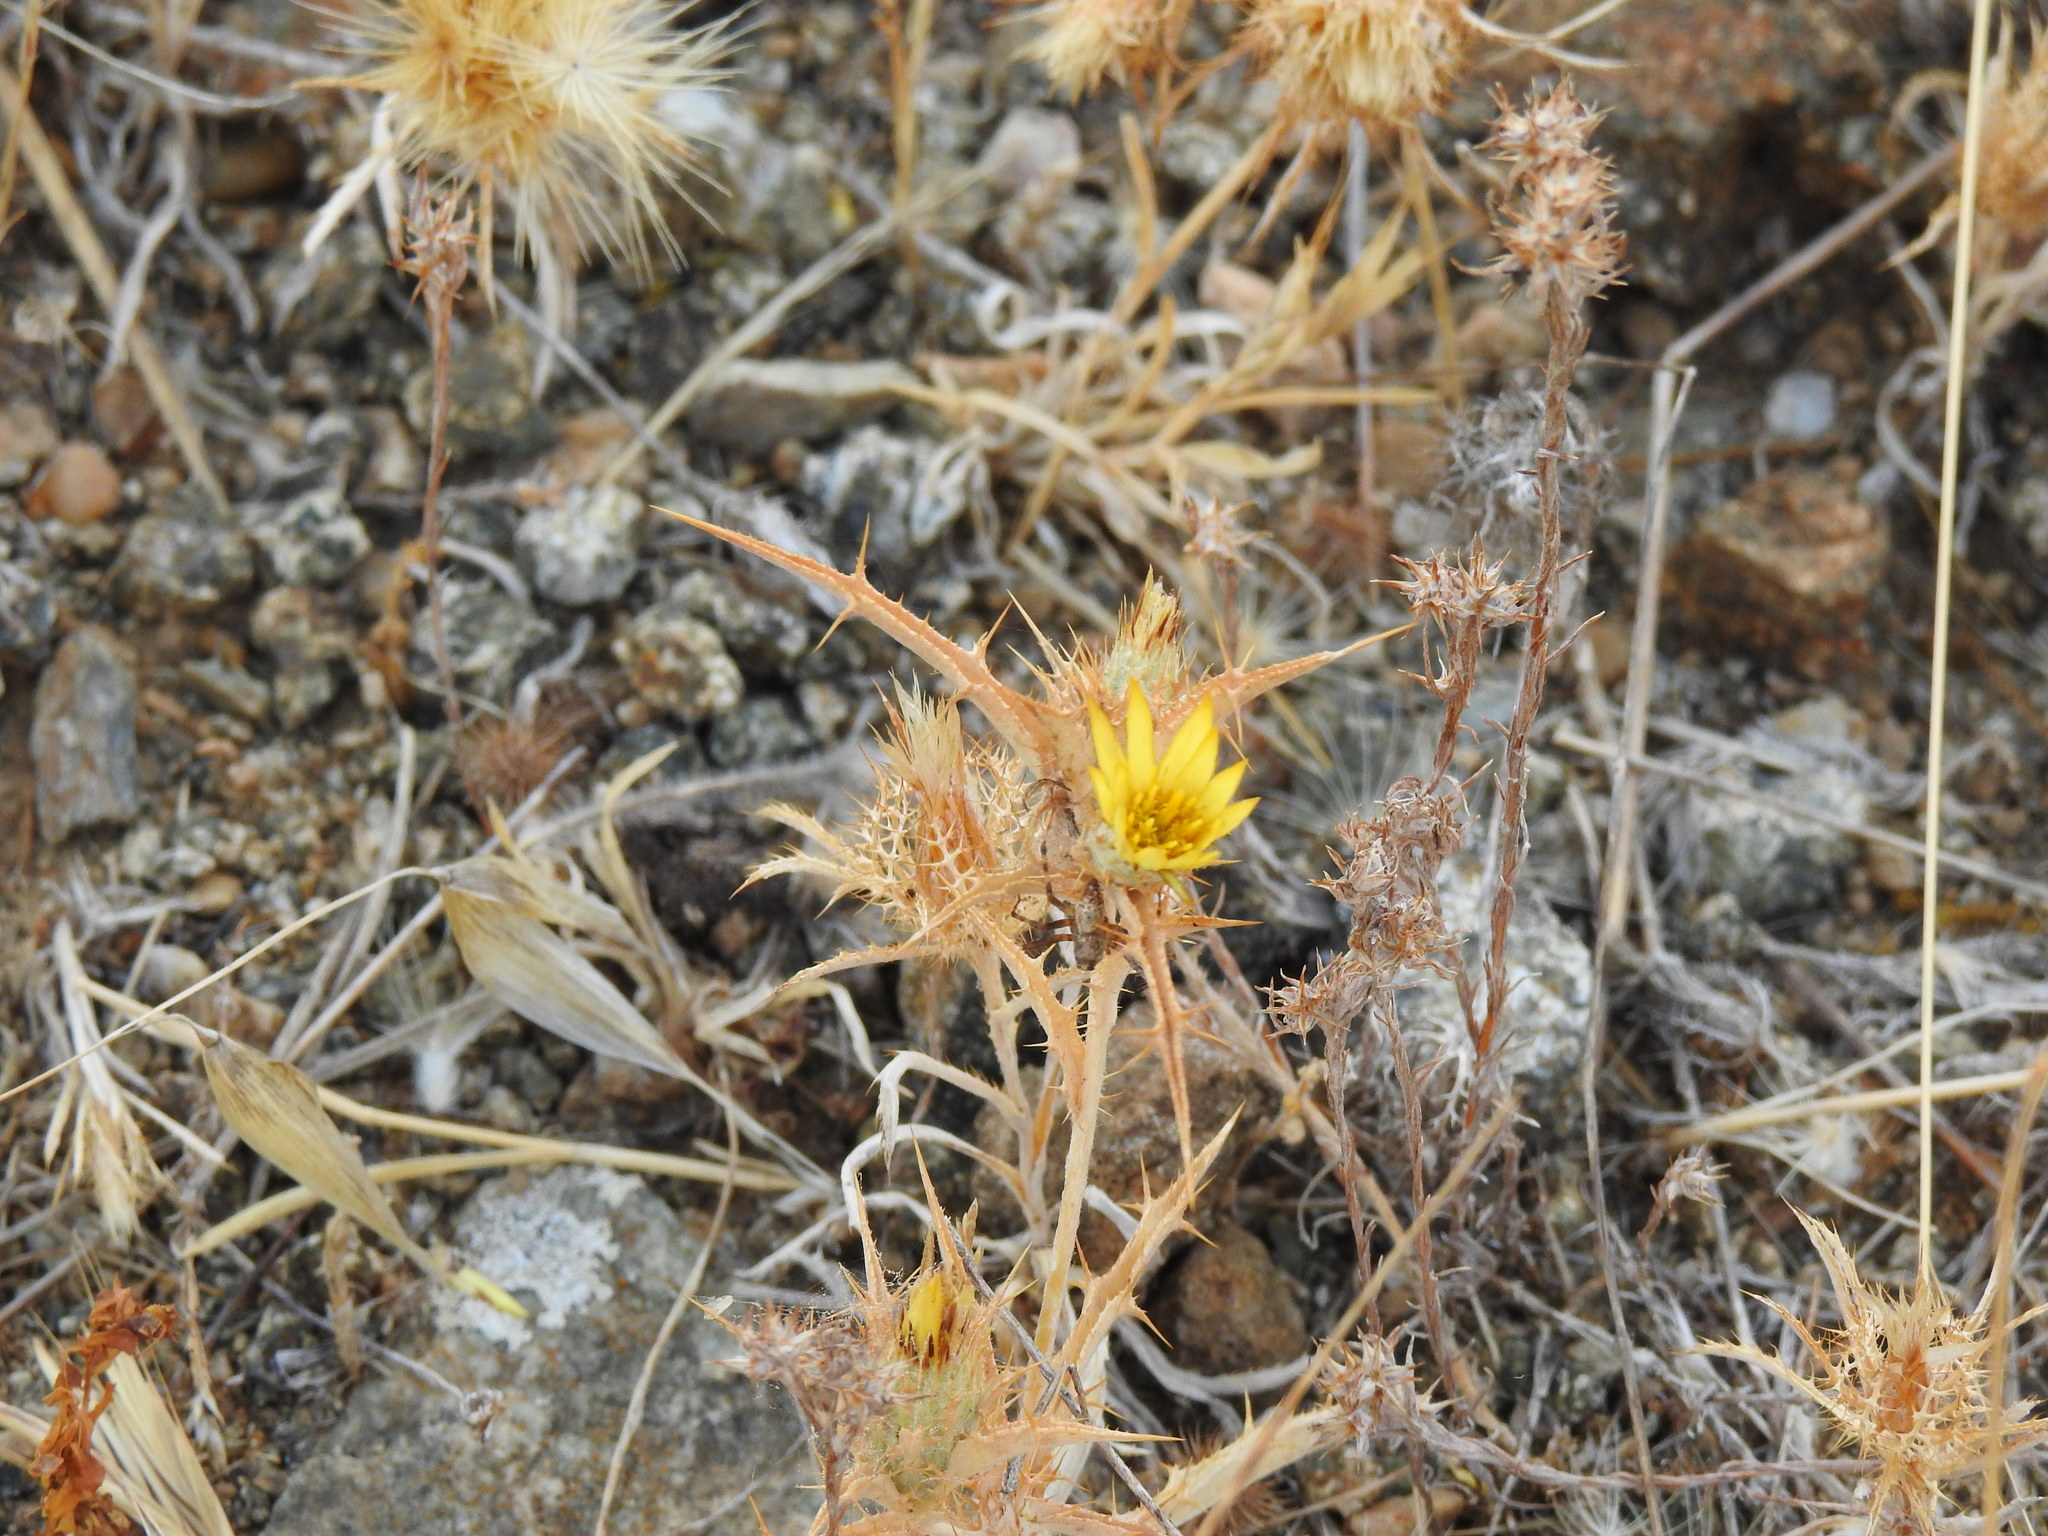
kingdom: Plantae
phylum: Tracheophyta
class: Magnoliopsida
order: Asterales
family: Asteraceae
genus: Carlina
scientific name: Carlina racemosa
